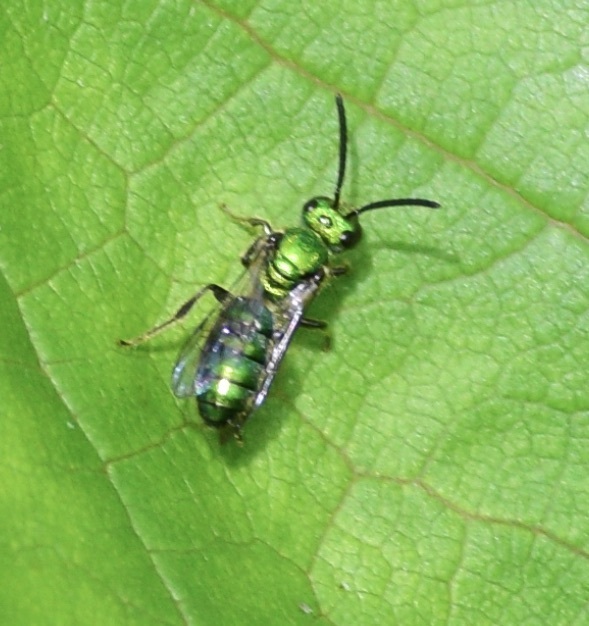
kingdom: Animalia
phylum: Arthropoda
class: Insecta
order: Hymenoptera
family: Halictidae
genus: Augochlora
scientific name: Augochlora pura
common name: Pure green sweat bee
